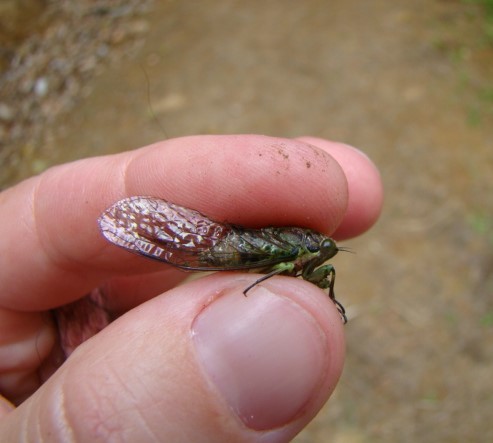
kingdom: Animalia
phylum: Arthropoda
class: Insecta
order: Hemiptera
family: Cicadidae
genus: Kikihia
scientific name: Kikihia scutellaris
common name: Lesser bronze cicada
